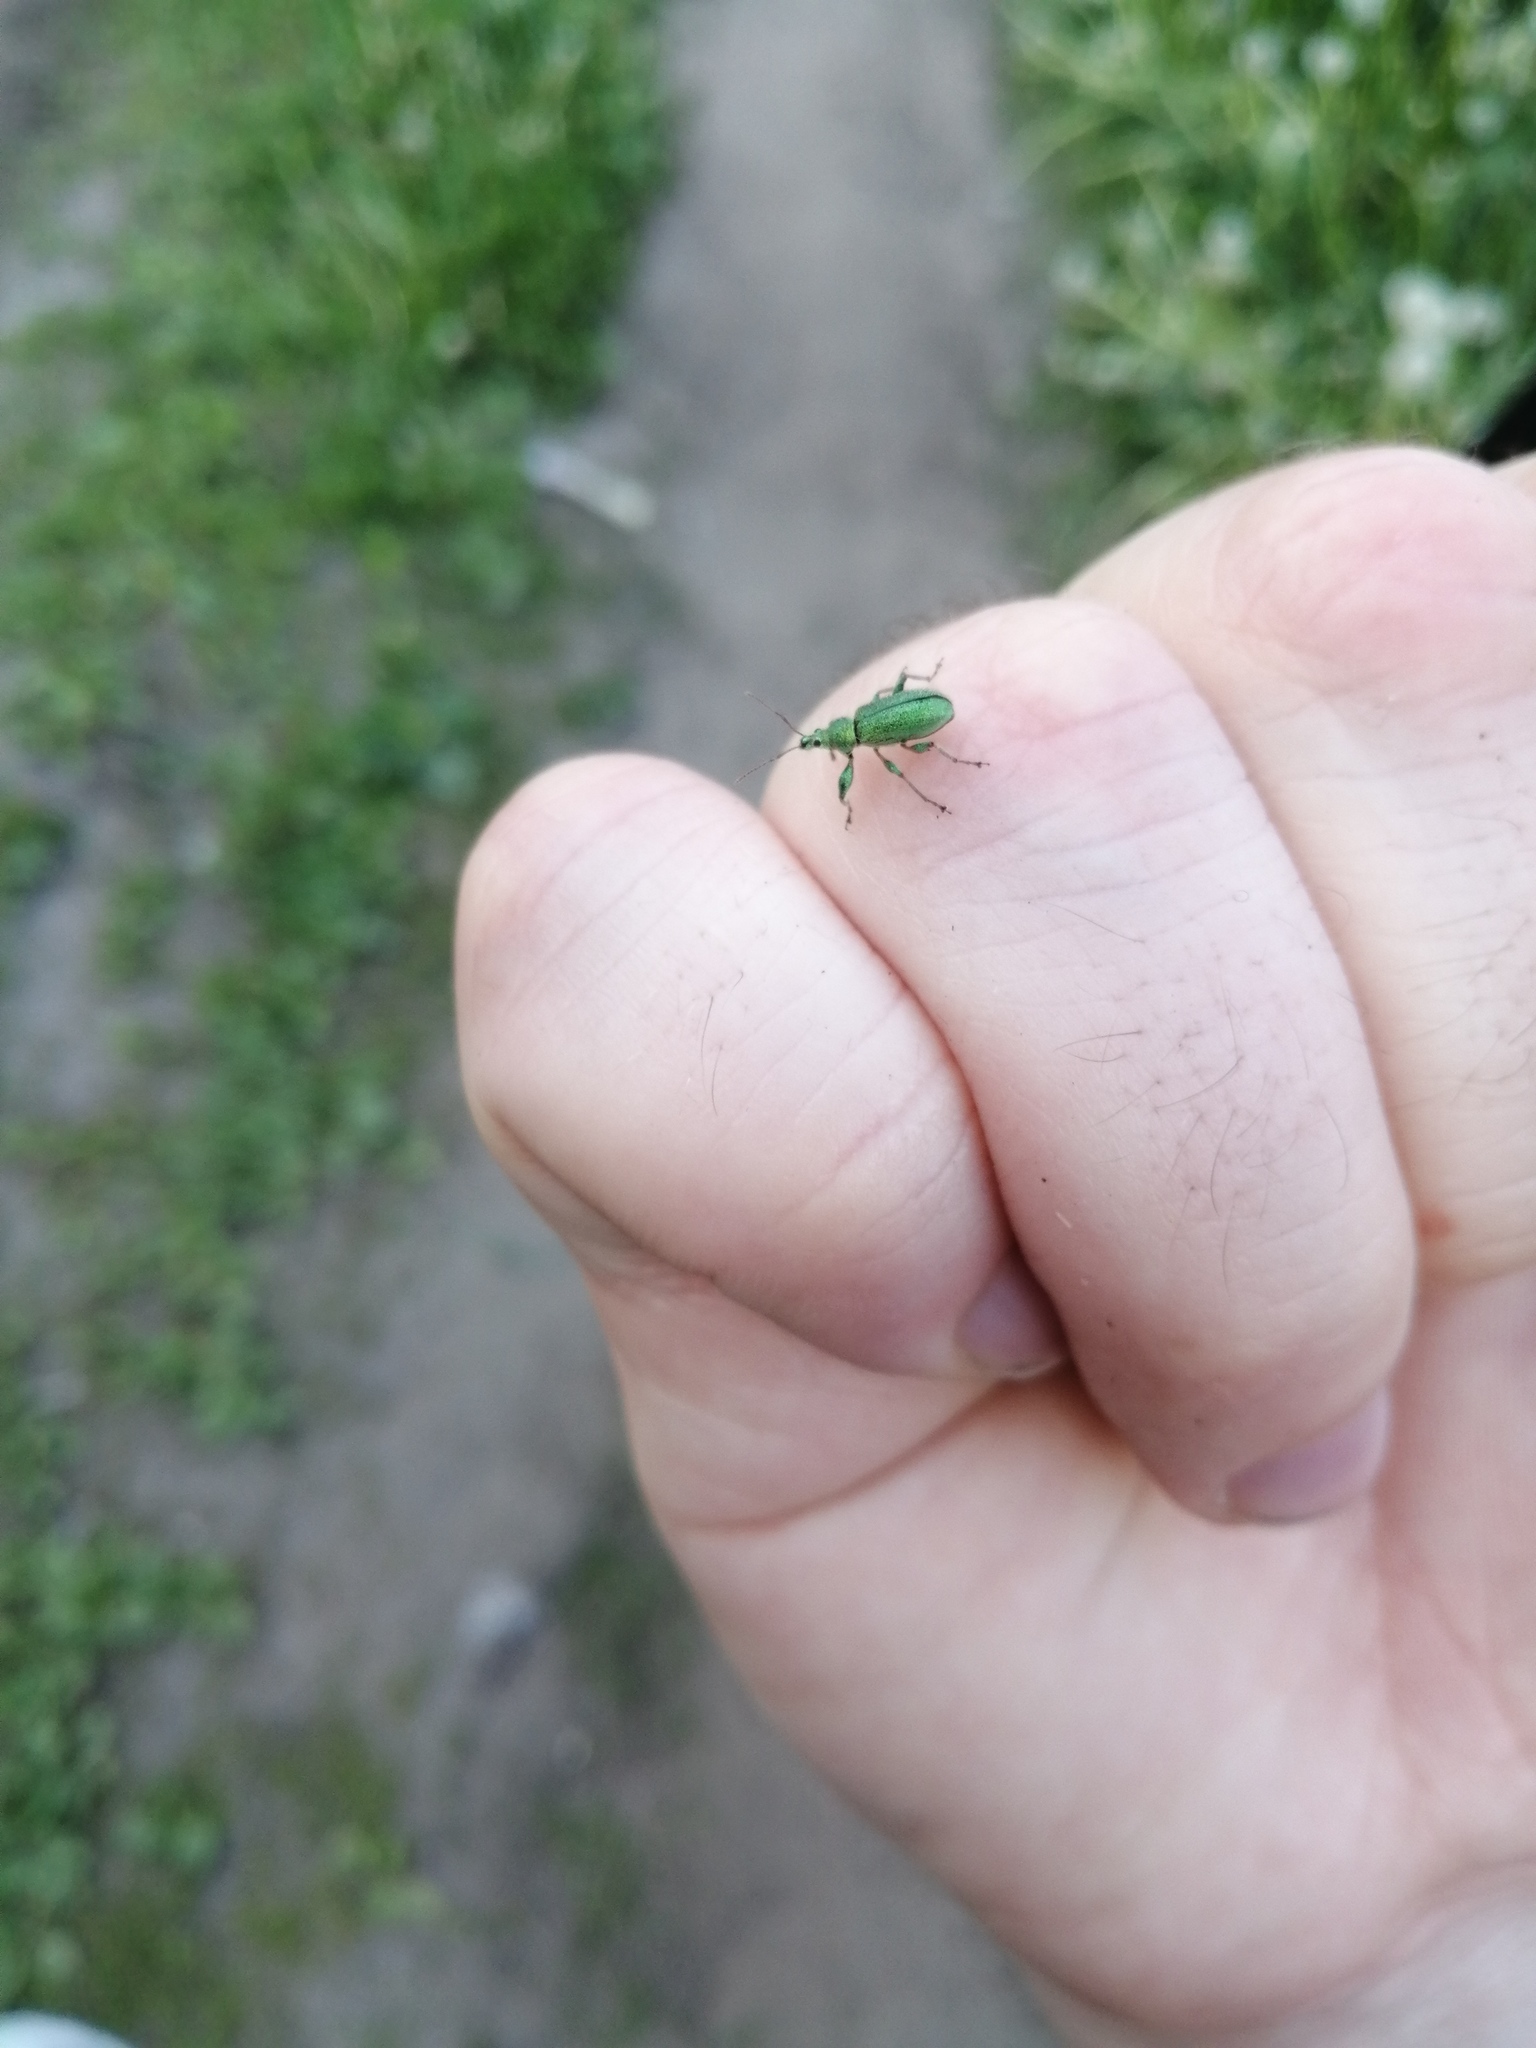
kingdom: Animalia
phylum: Arthropoda
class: Insecta
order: Coleoptera
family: Curculionidae
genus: Phyllobius
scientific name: Phyllobius arborator
